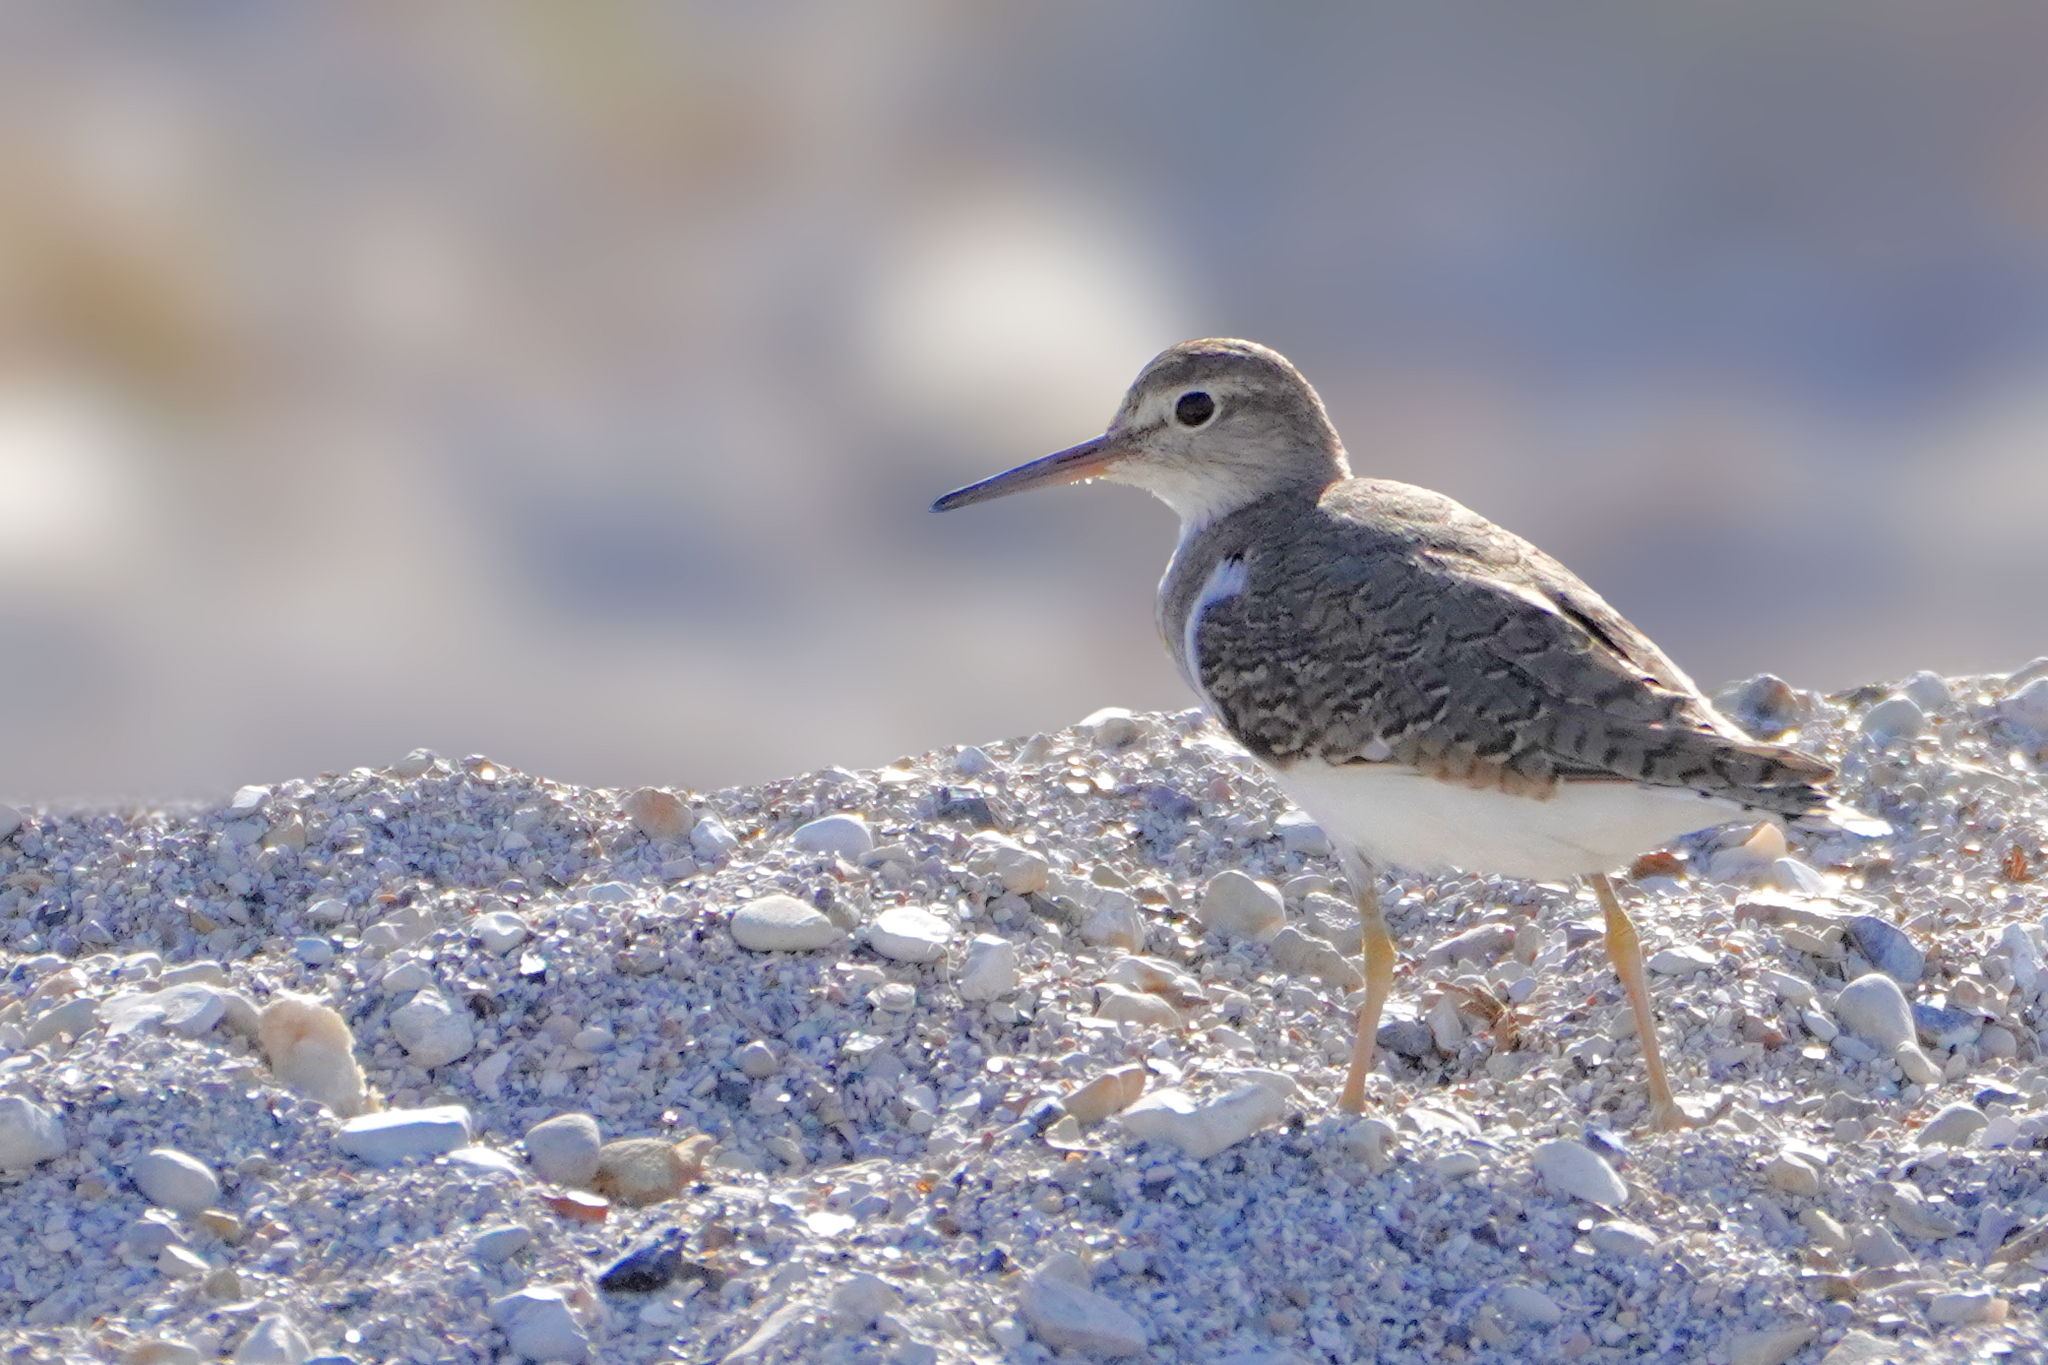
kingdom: Animalia
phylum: Chordata
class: Aves
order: Charadriiformes
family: Scolopacidae
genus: Actitis
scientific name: Actitis hypoleucos
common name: Common sandpiper
